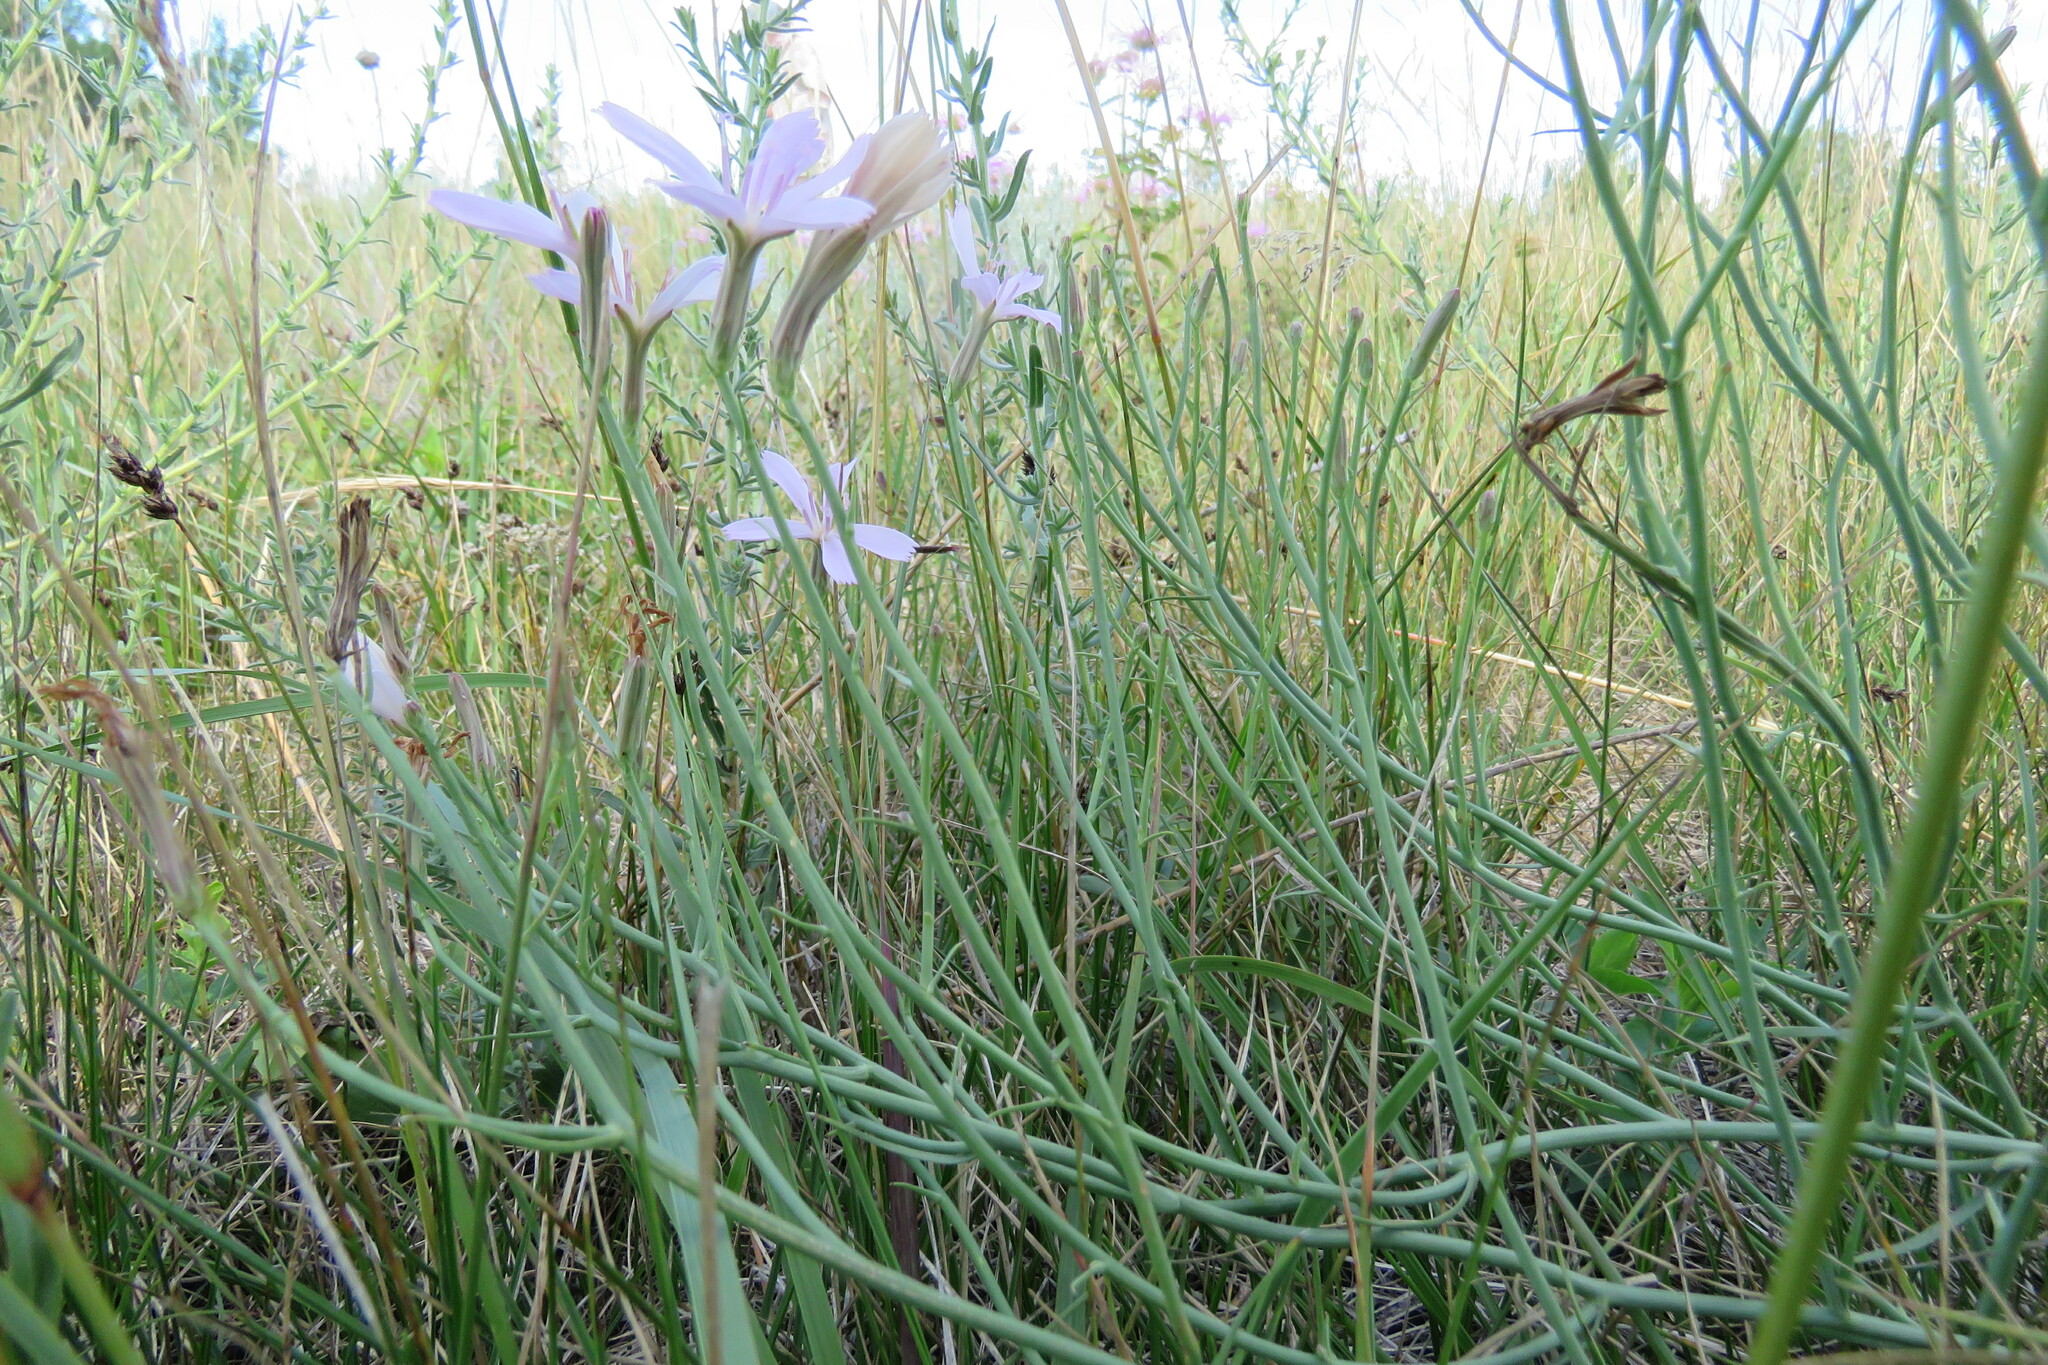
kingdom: Plantae
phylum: Tracheophyta
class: Magnoliopsida
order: Asterales
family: Asteraceae
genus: Lygodesmia
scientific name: Lygodesmia juncea
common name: Common skeletonweed
